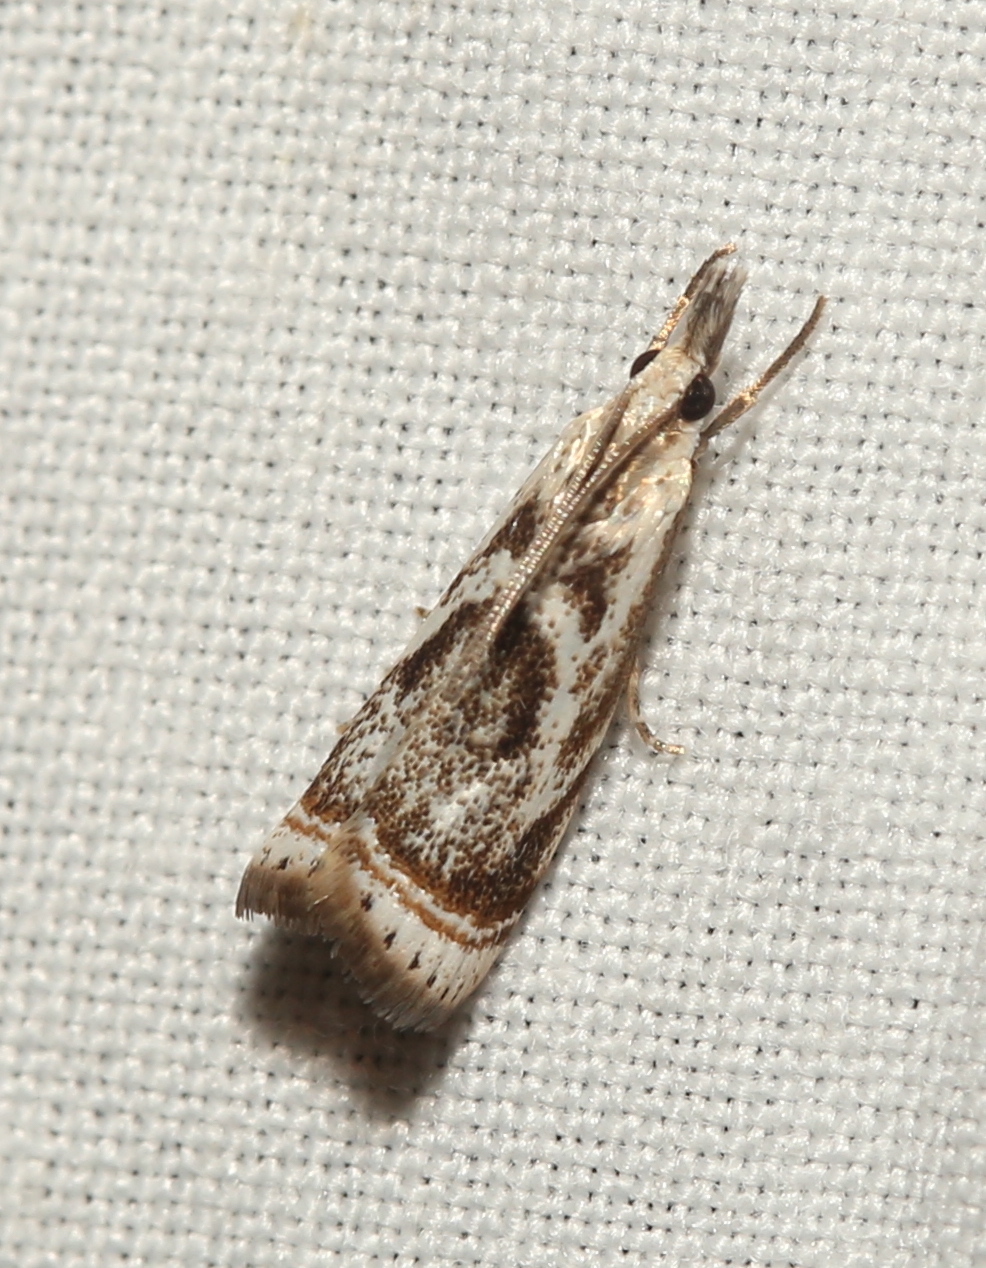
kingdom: Animalia
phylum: Arthropoda
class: Insecta
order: Lepidoptera
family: Crambidae
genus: Microcrambus
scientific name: Microcrambus elegans
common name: Elegant grass-veneer
